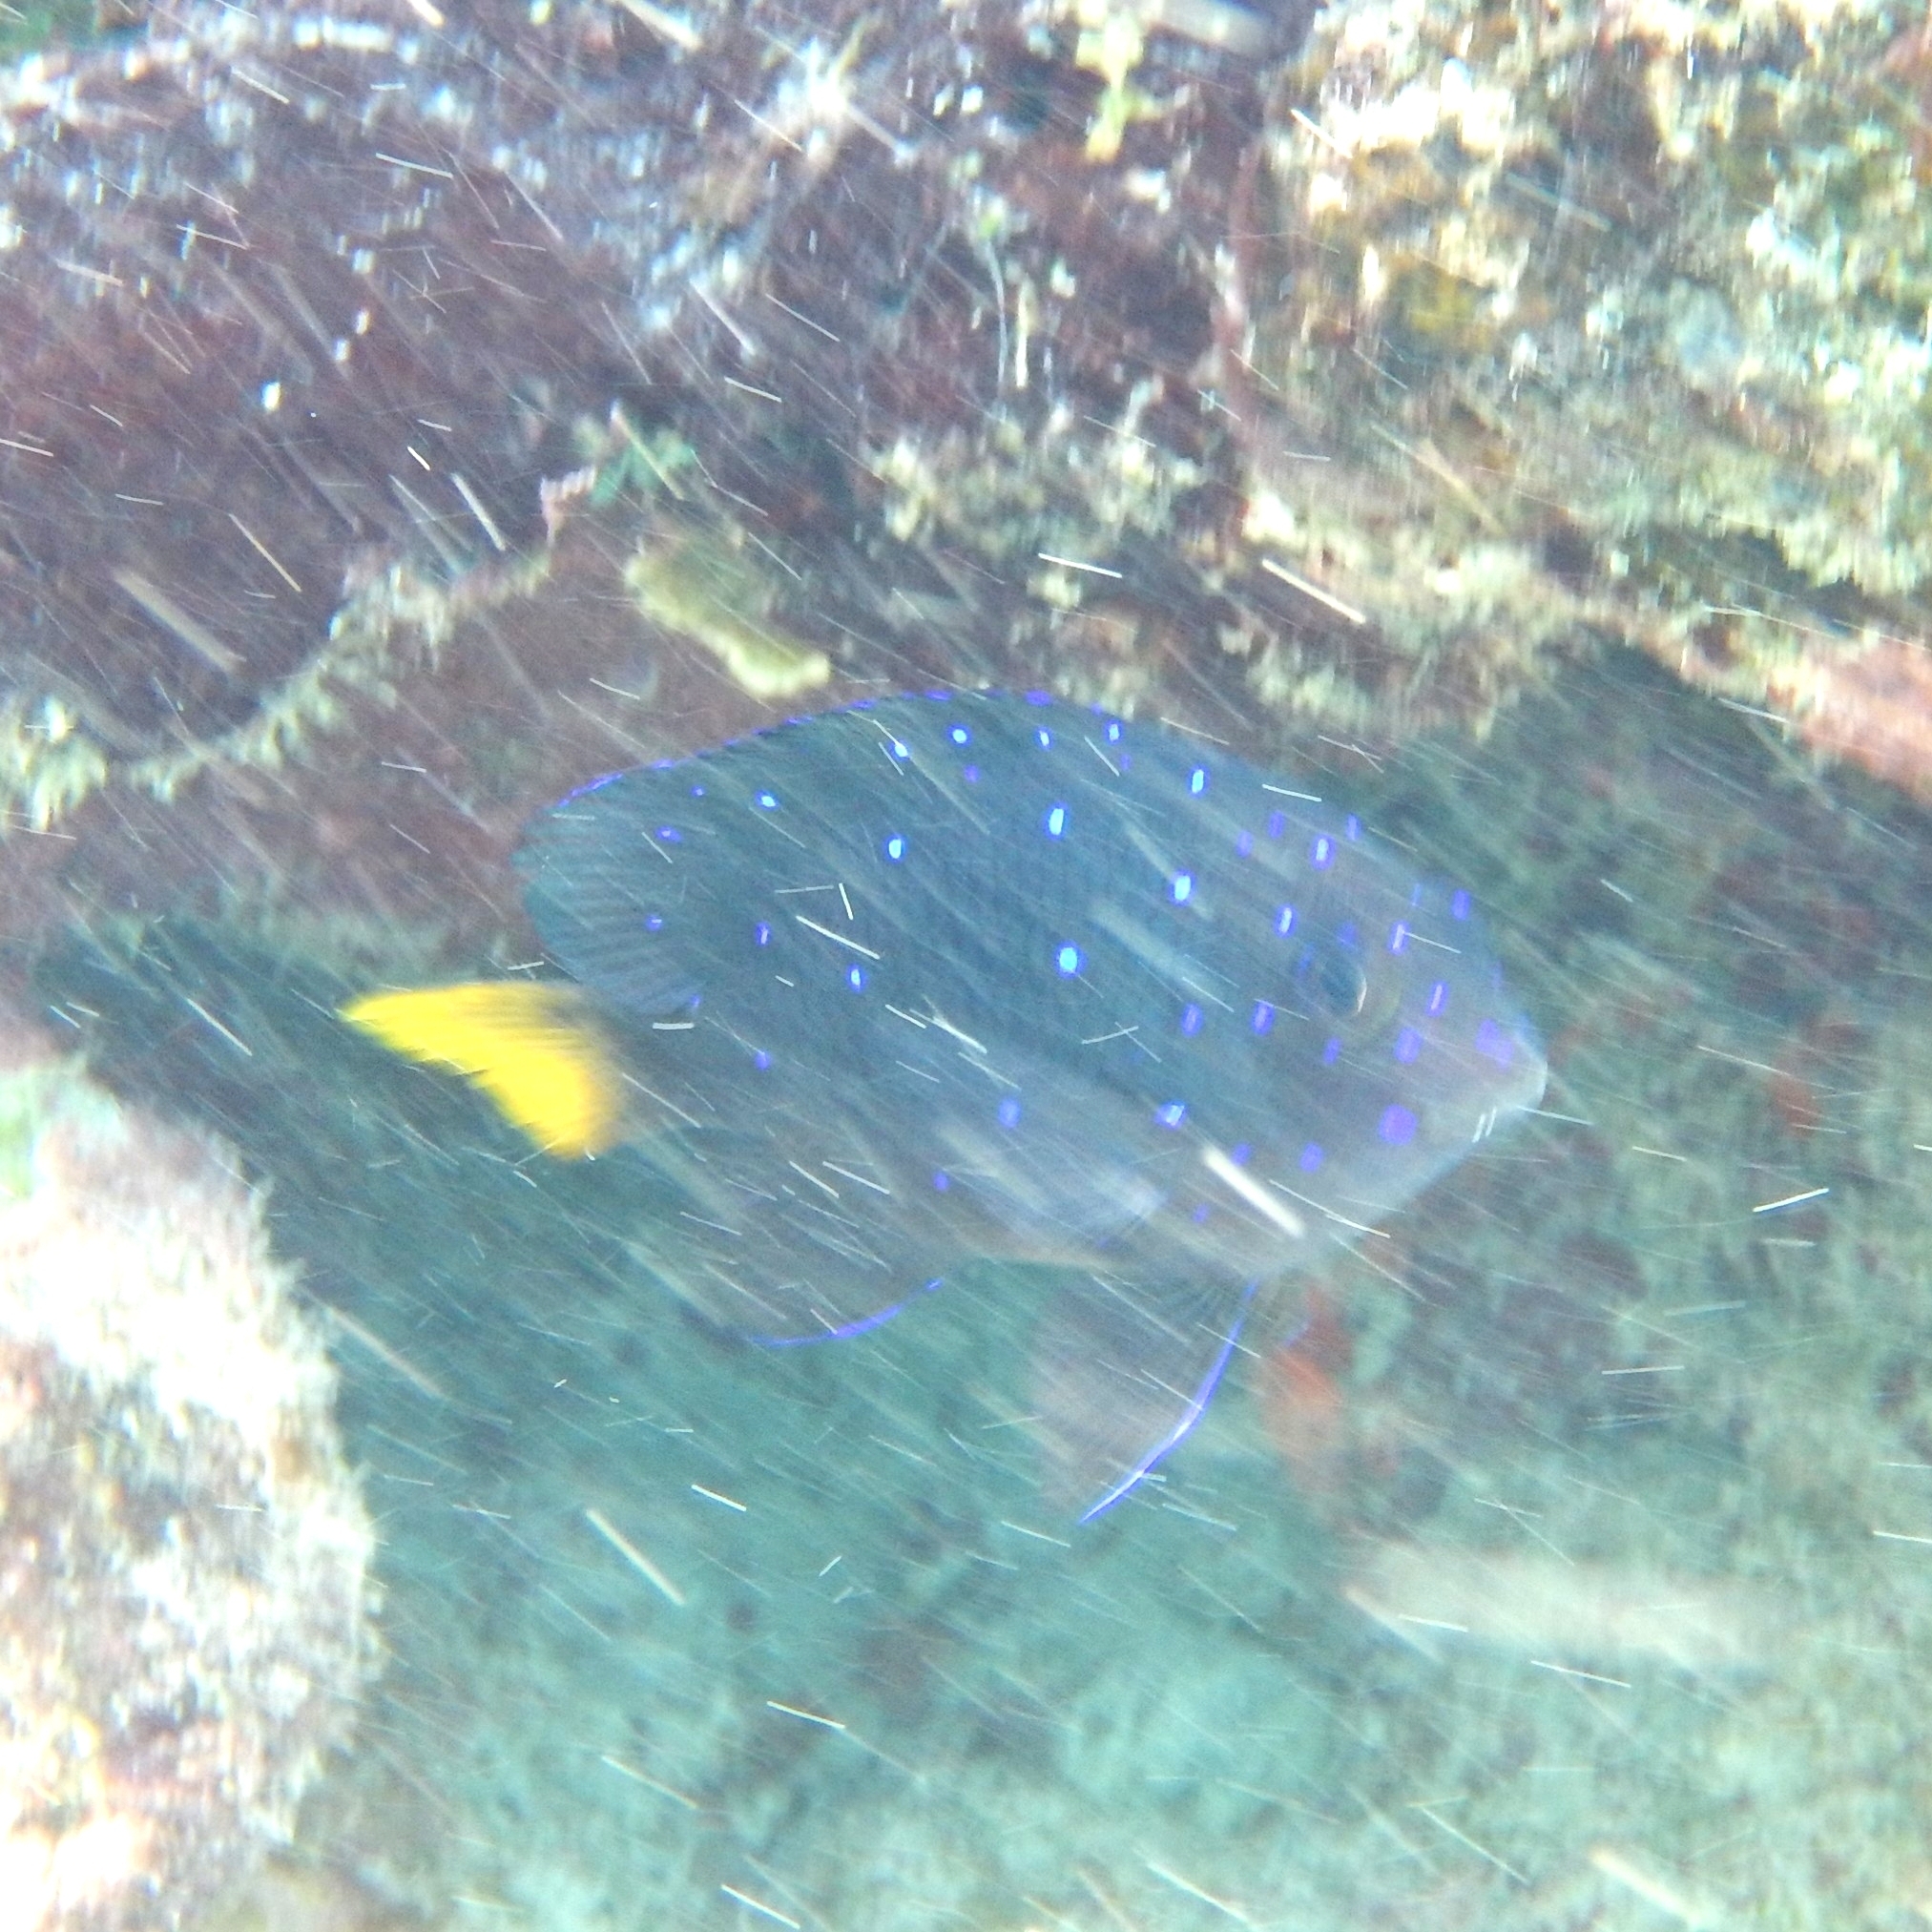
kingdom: Animalia
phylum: Chordata
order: Perciformes
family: Pomacentridae
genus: Microspathodon
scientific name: Microspathodon chrysurus
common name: Yellowtail damselfish
